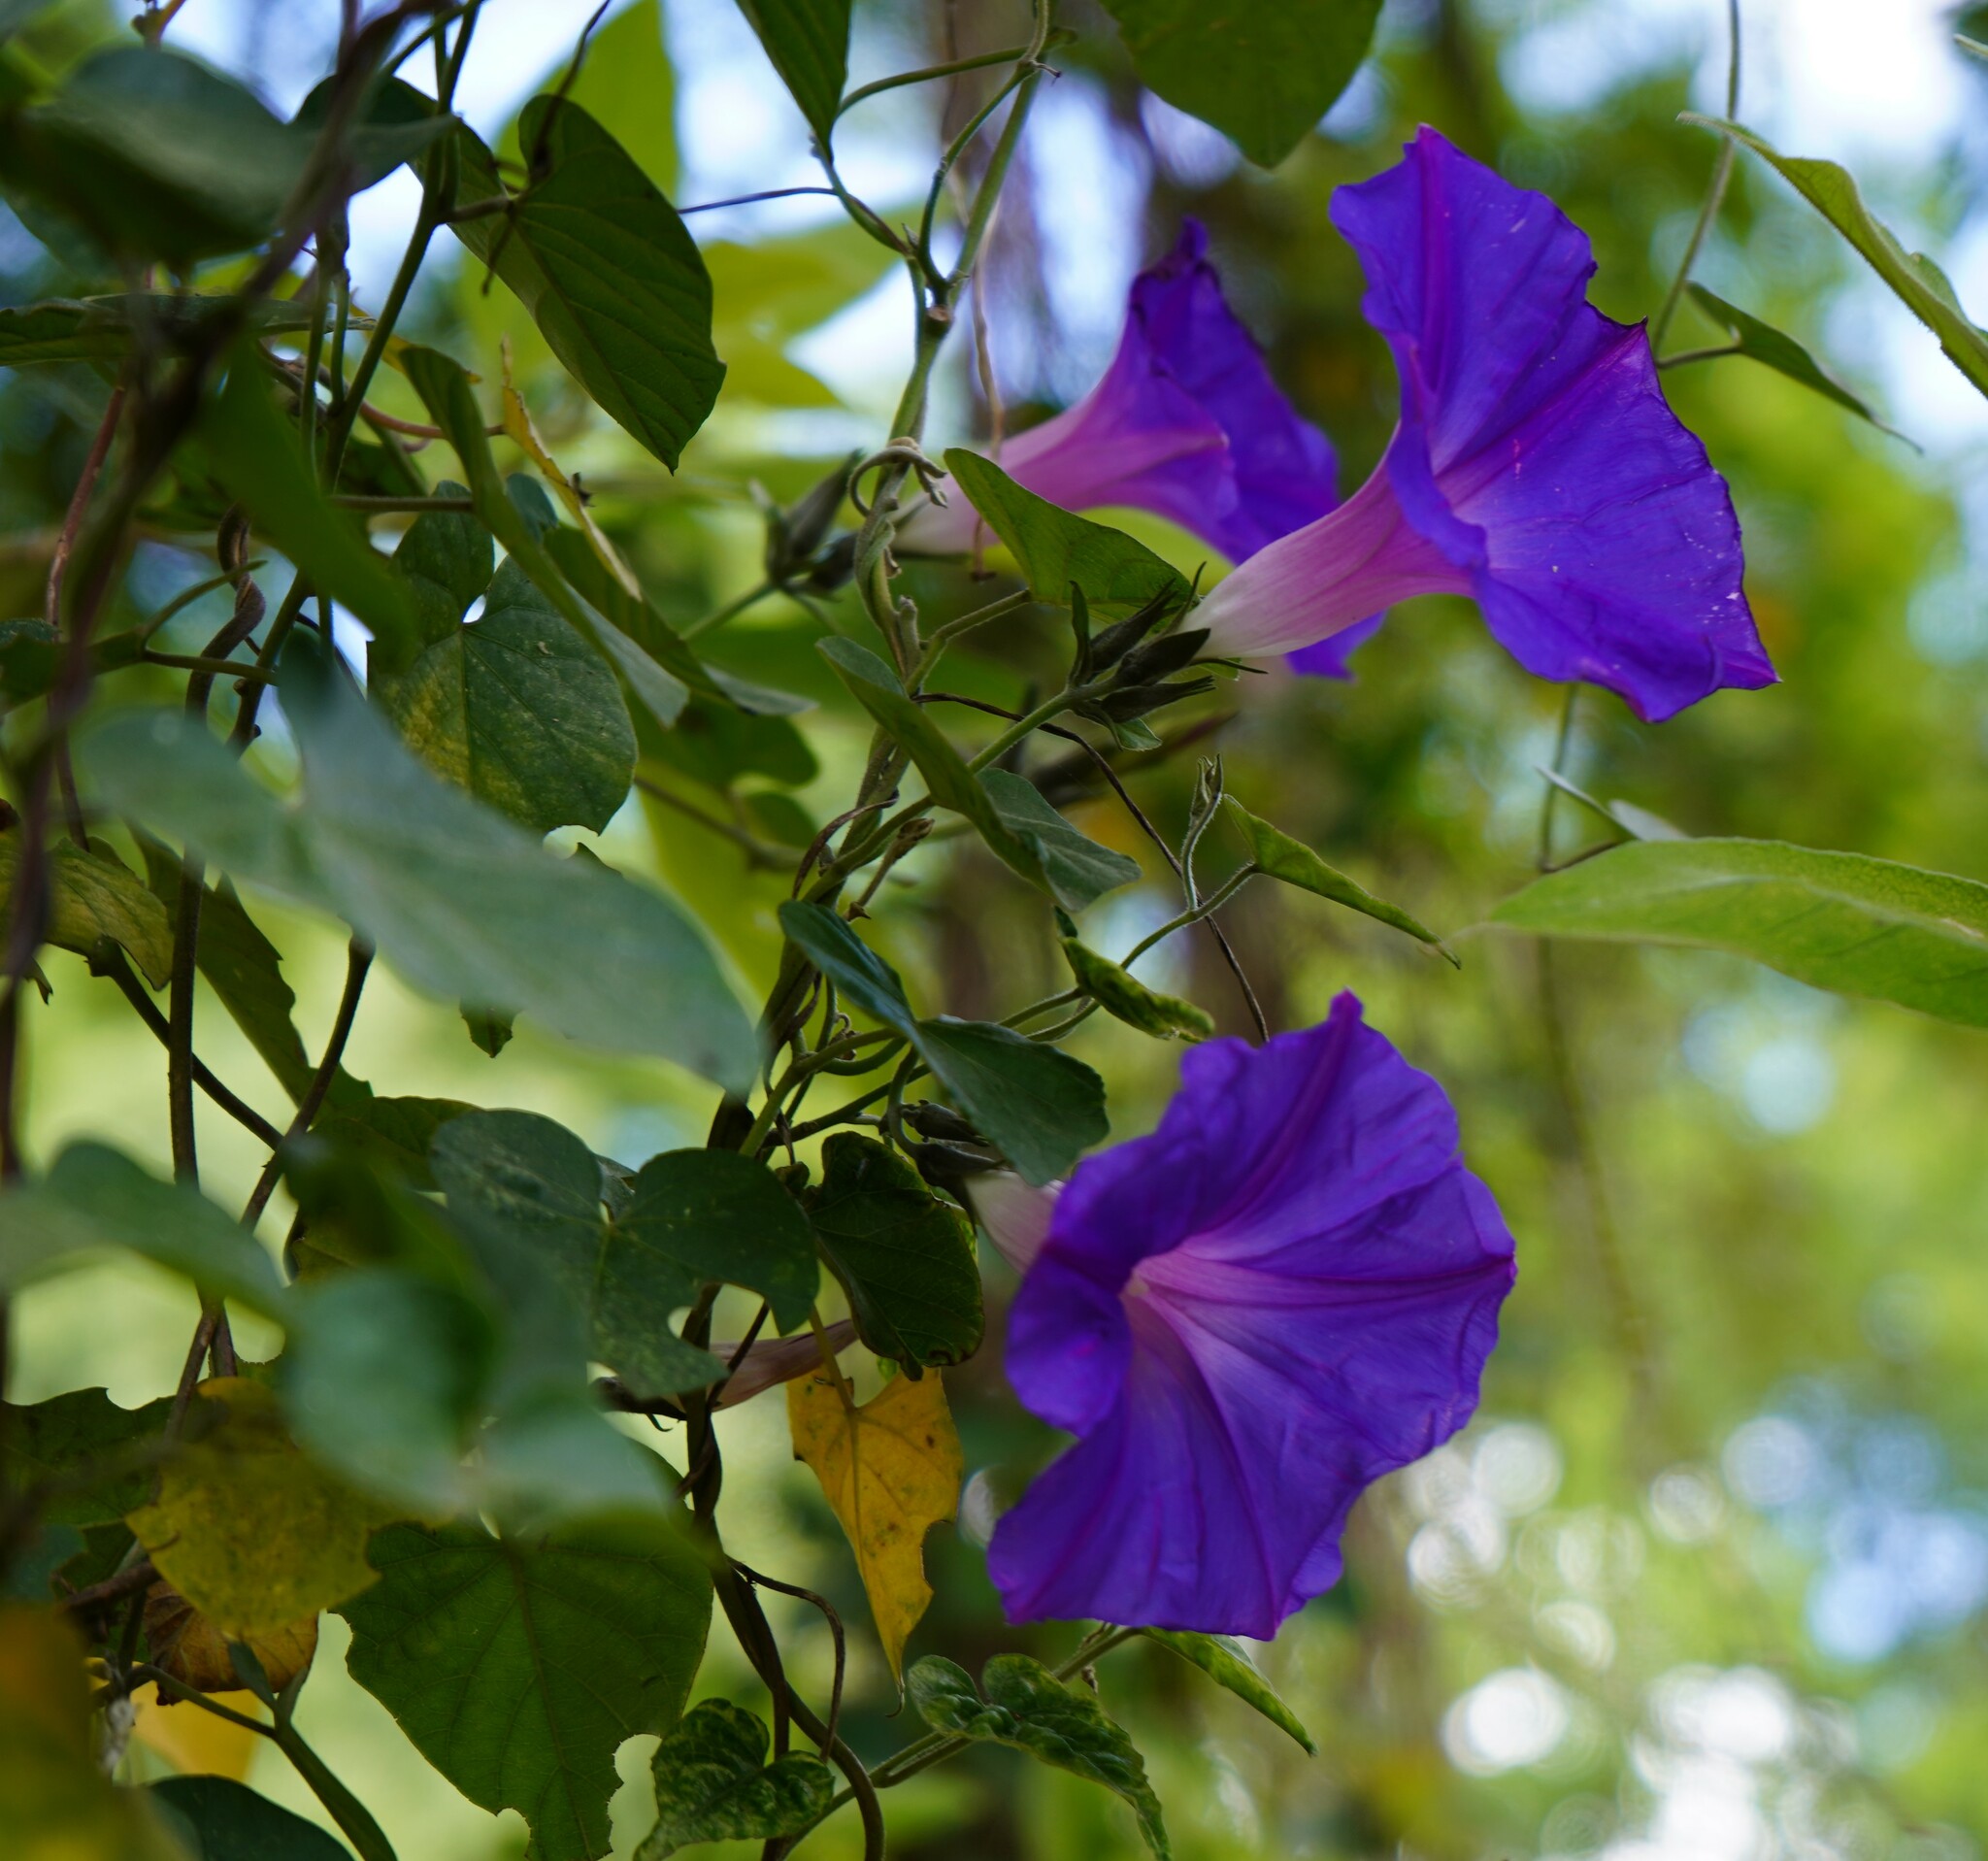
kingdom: Plantae
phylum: Tracheophyta
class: Magnoliopsida
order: Solanales
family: Convolvulaceae
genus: Ipomoea
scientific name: Ipomoea indica
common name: Blue dawnflower
